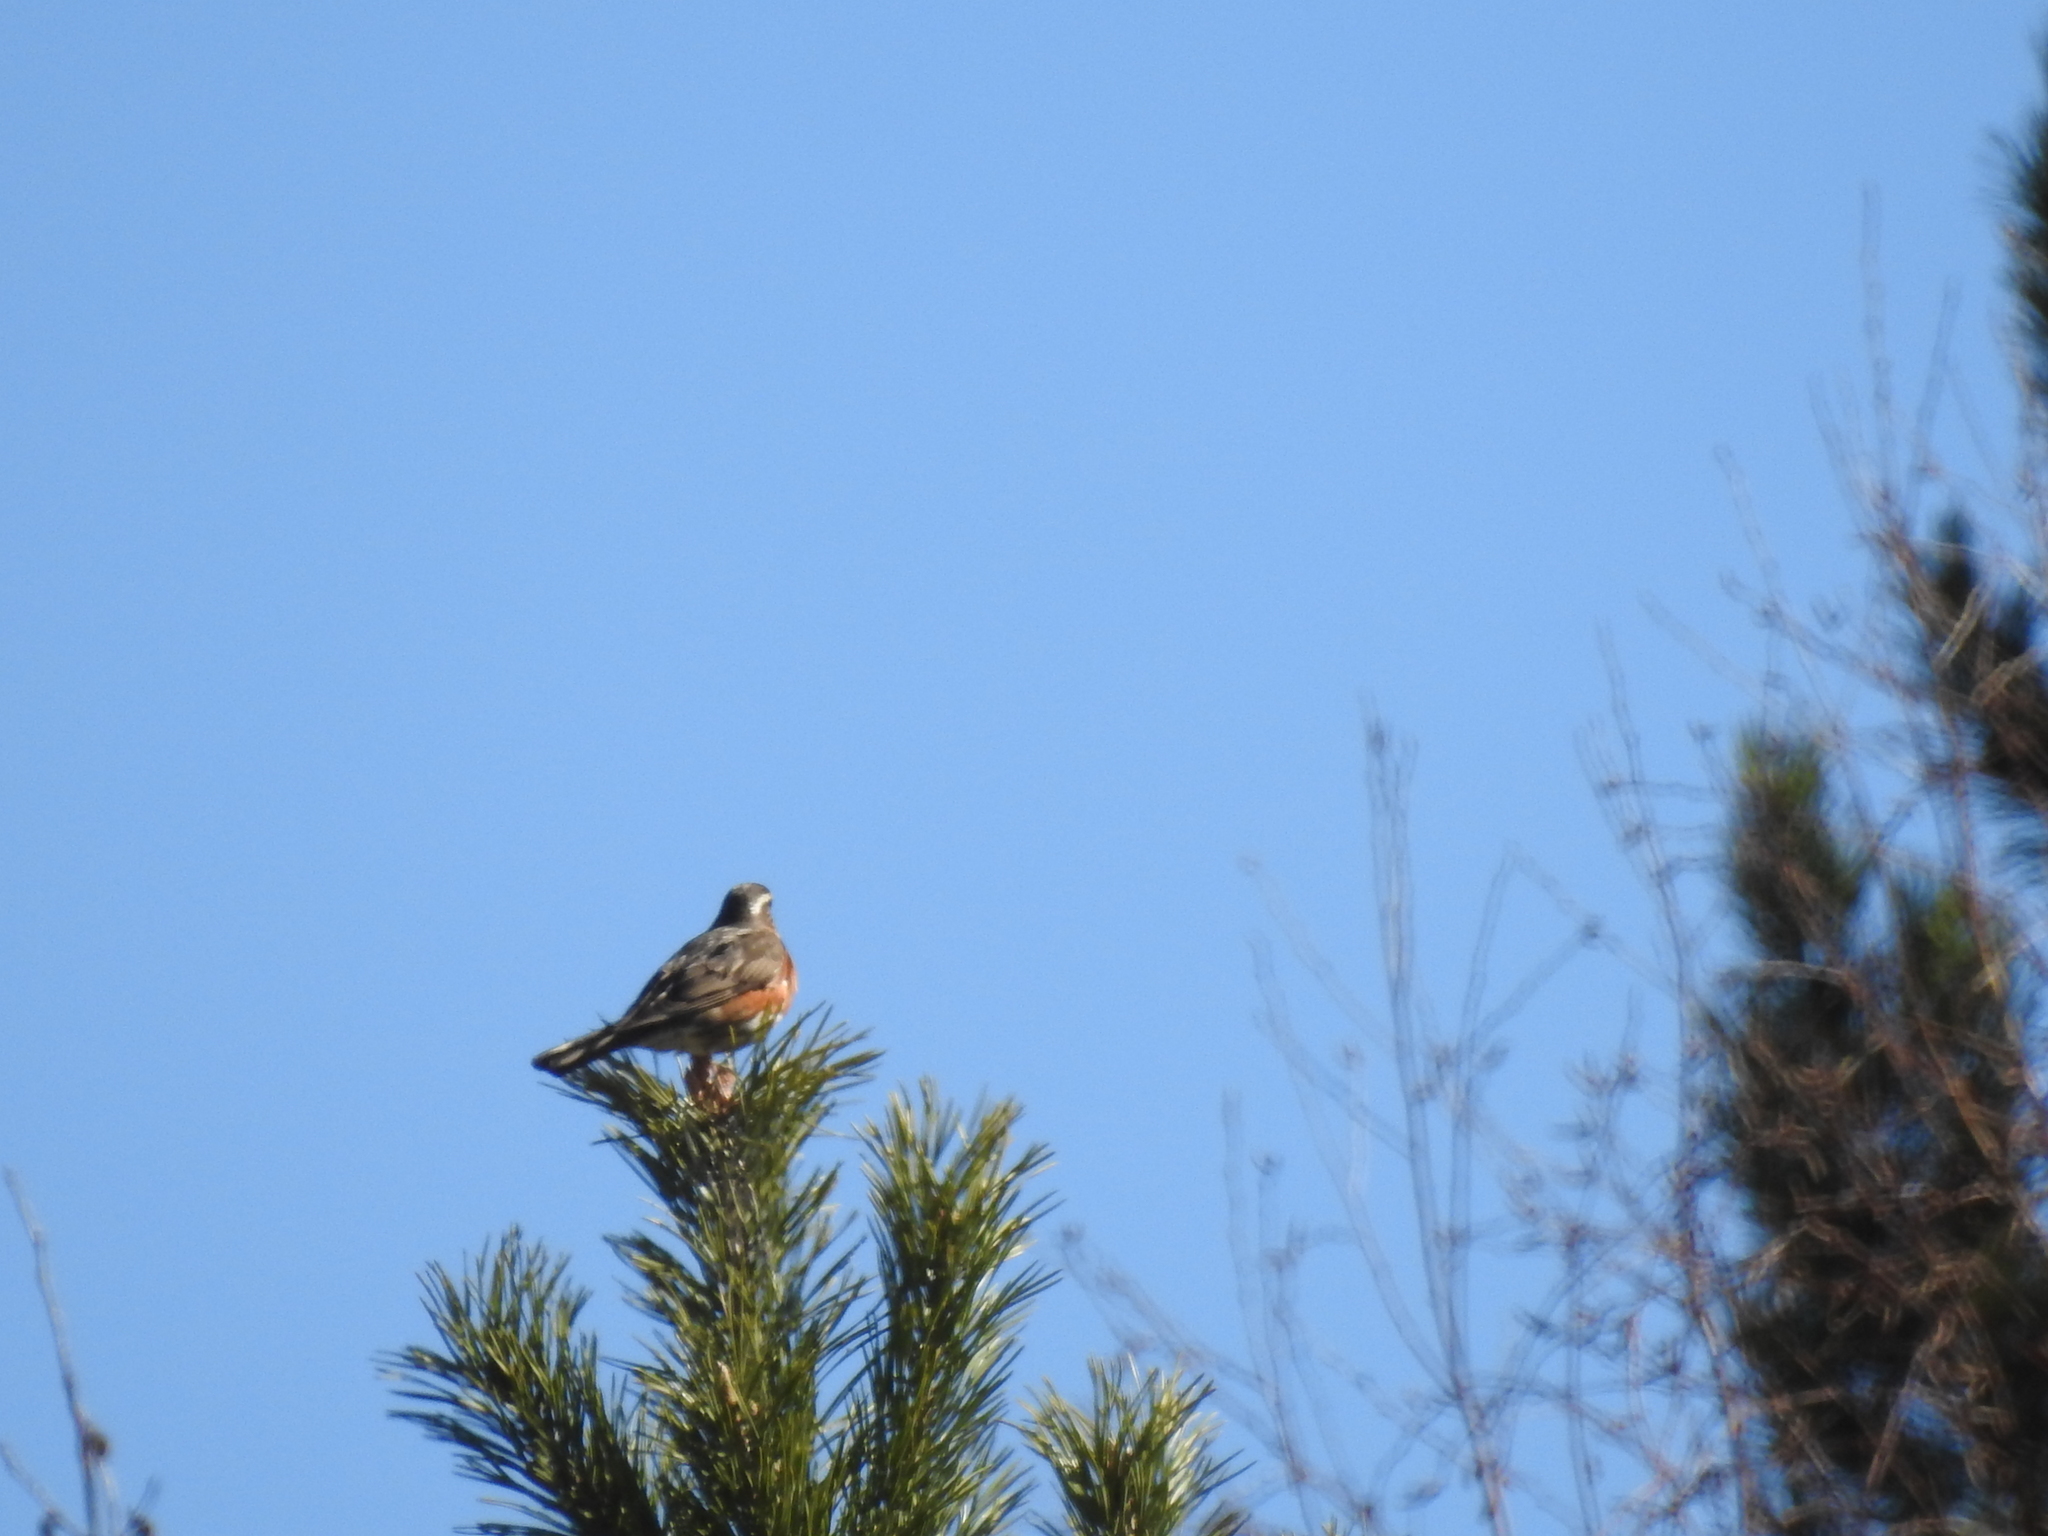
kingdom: Animalia
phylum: Chordata
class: Aves
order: Passeriformes
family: Turdidae
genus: Turdus
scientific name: Turdus iliacus
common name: Redwing
